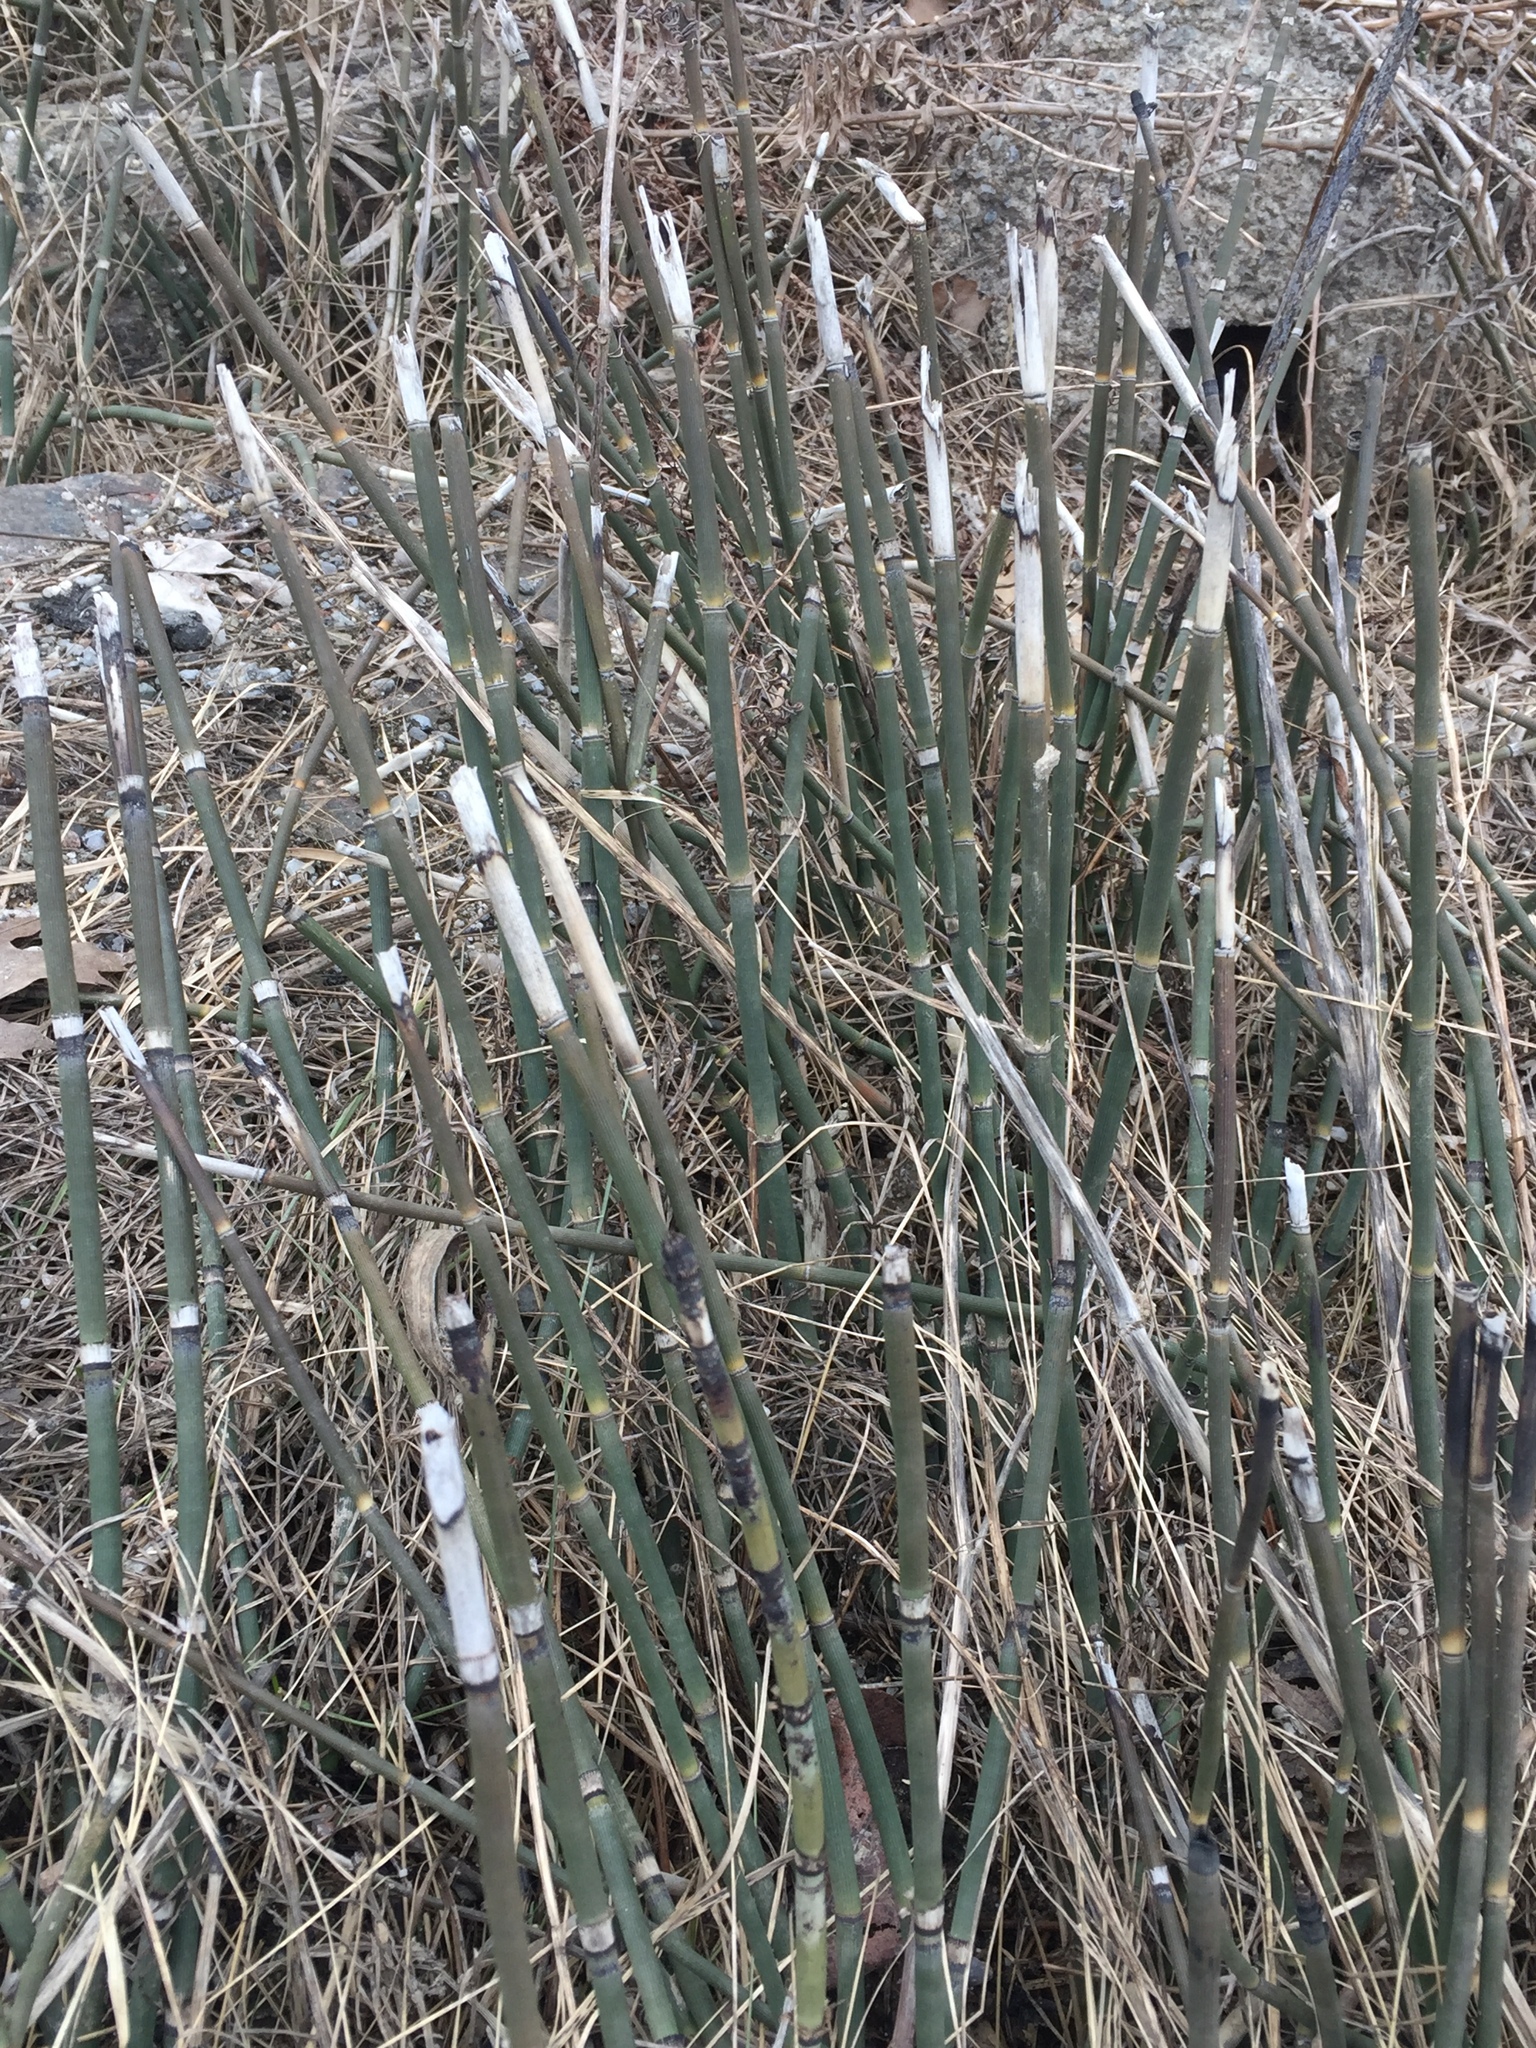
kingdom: Plantae
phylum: Tracheophyta
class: Polypodiopsida
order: Equisetales
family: Equisetaceae
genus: Equisetum
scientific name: Equisetum hyemale
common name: Rough horsetail
